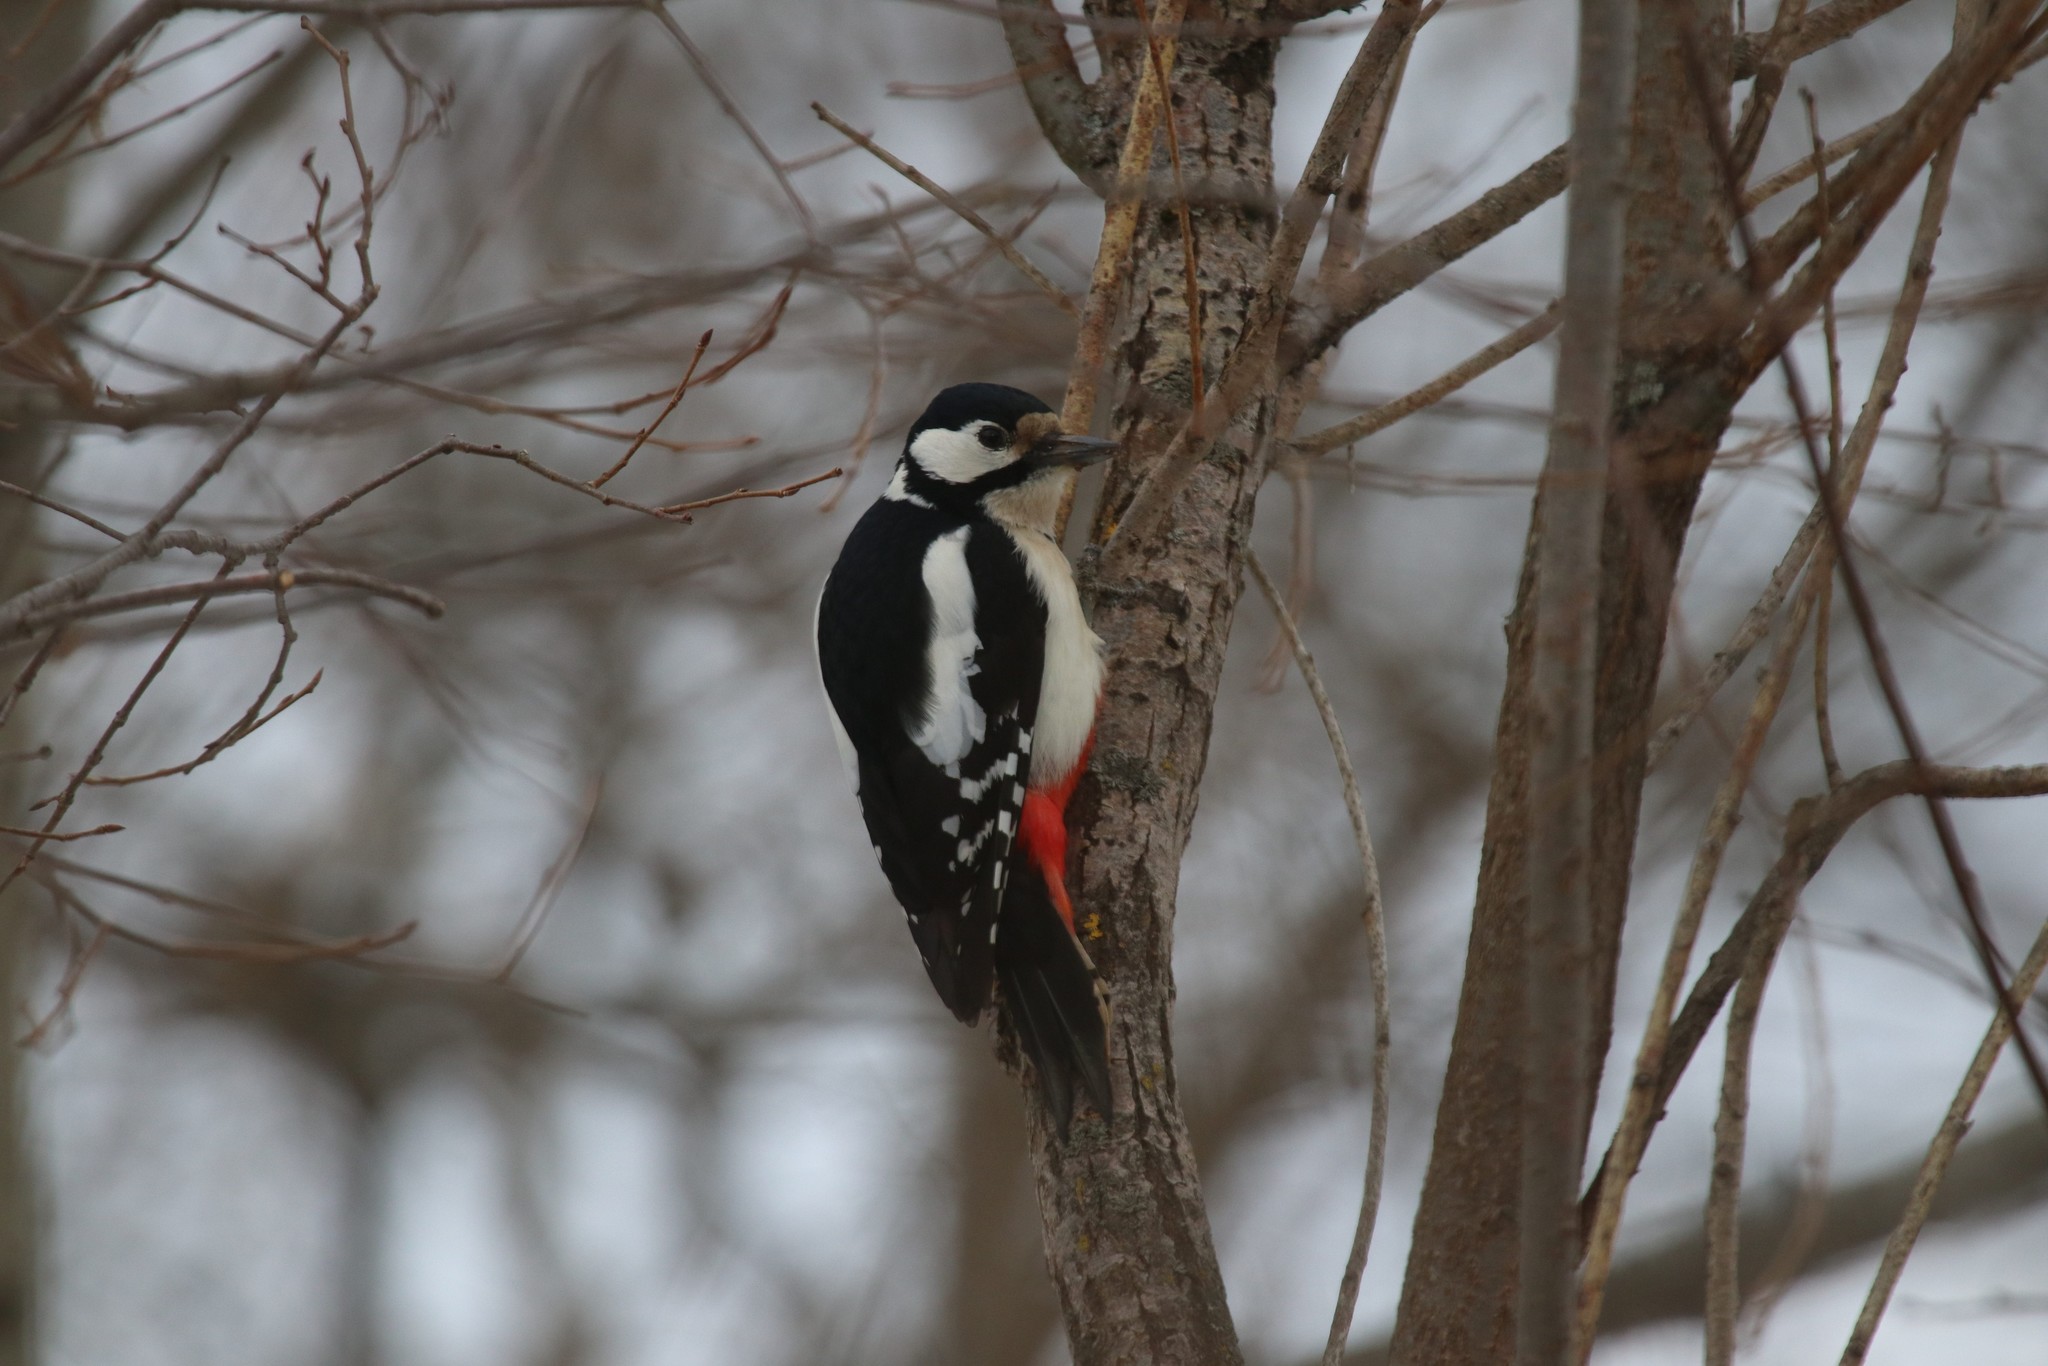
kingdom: Animalia
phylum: Chordata
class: Aves
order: Piciformes
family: Picidae
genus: Dendrocopos
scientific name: Dendrocopos major
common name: Great spotted woodpecker
